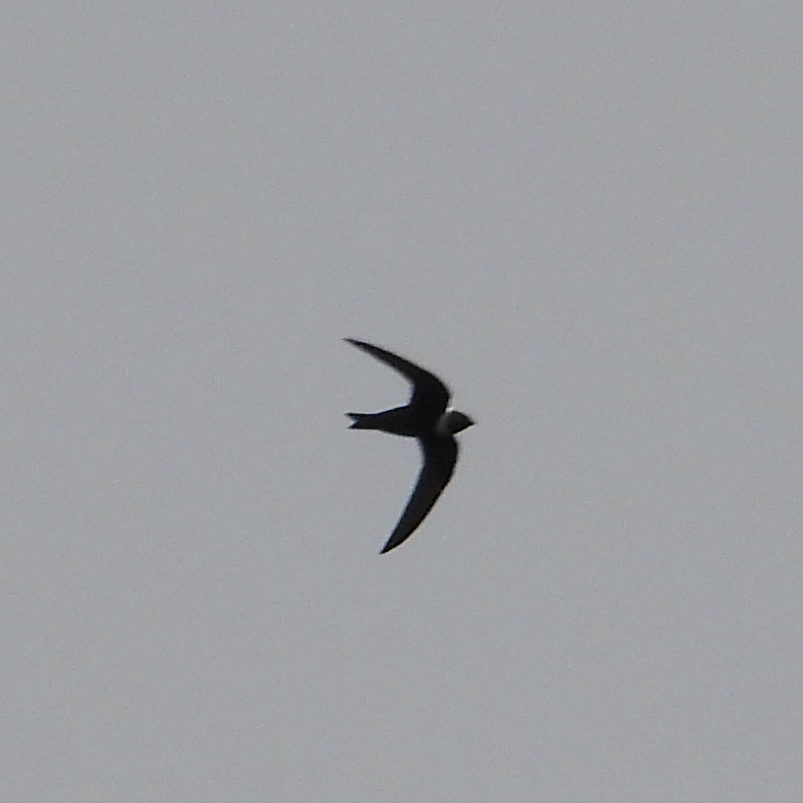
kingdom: Animalia
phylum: Chordata
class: Aves
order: Apodiformes
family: Apodidae
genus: Streptoprocne
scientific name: Streptoprocne zonaris
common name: White-collared swift
